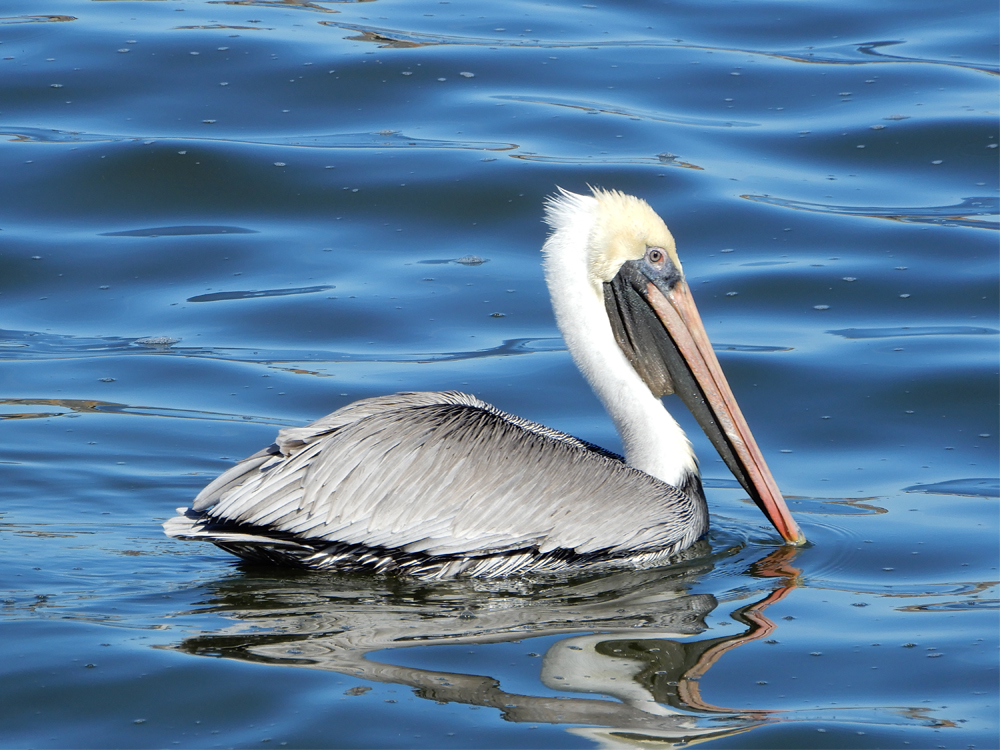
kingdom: Animalia
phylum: Chordata
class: Aves
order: Pelecaniformes
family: Pelecanidae
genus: Pelecanus
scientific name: Pelecanus occidentalis
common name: Brown pelican
